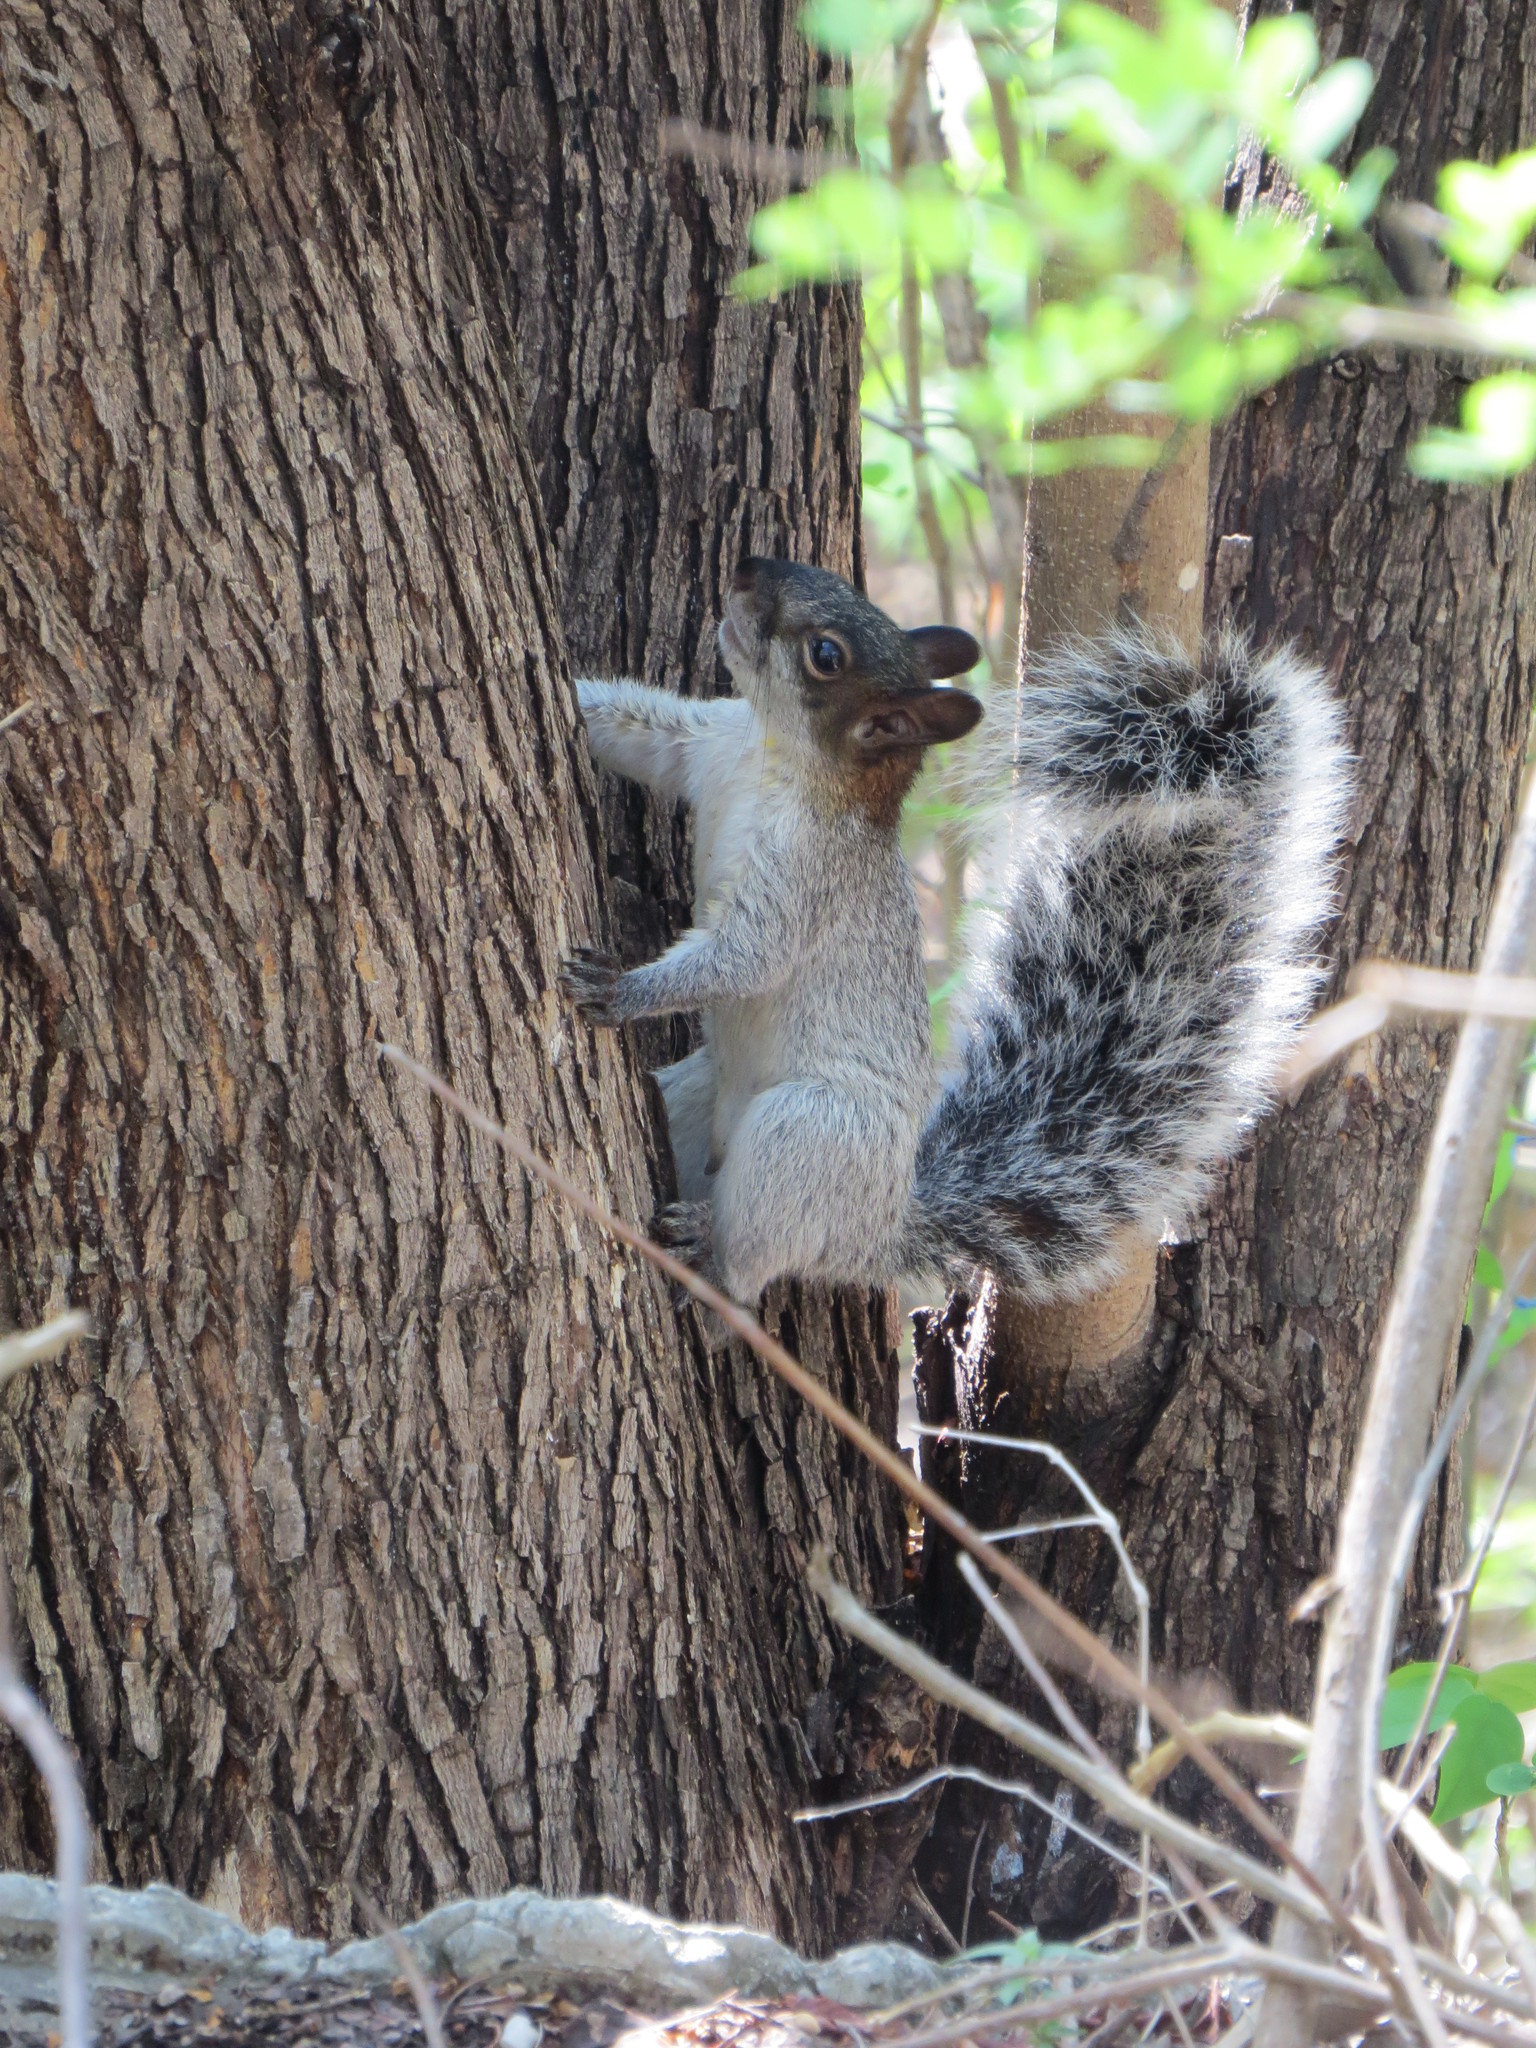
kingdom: Animalia
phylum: Chordata
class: Mammalia
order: Rodentia
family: Sciuridae
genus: Sciurus
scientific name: Sciurus aureogaster
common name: Red-bellied squirrel
